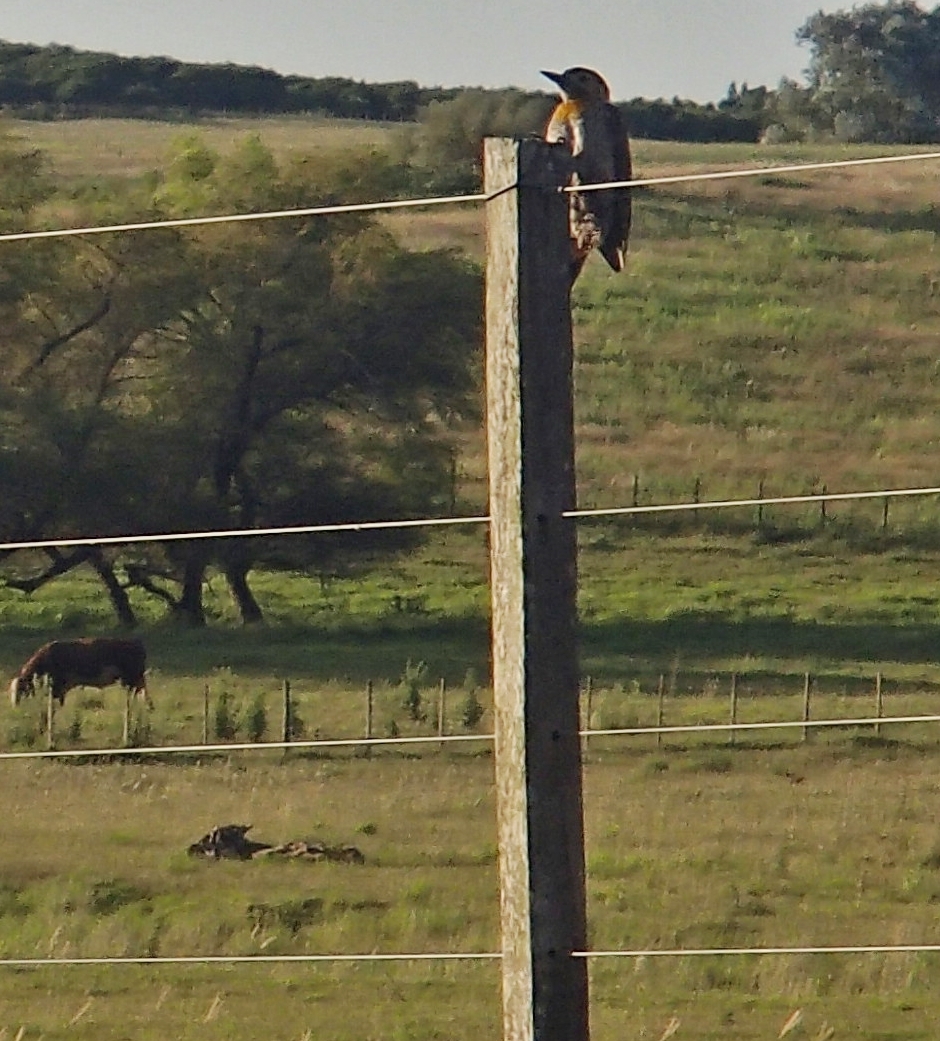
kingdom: Animalia
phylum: Chordata
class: Aves
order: Piciformes
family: Picidae
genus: Colaptes
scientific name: Colaptes campestris
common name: Campo flicker
